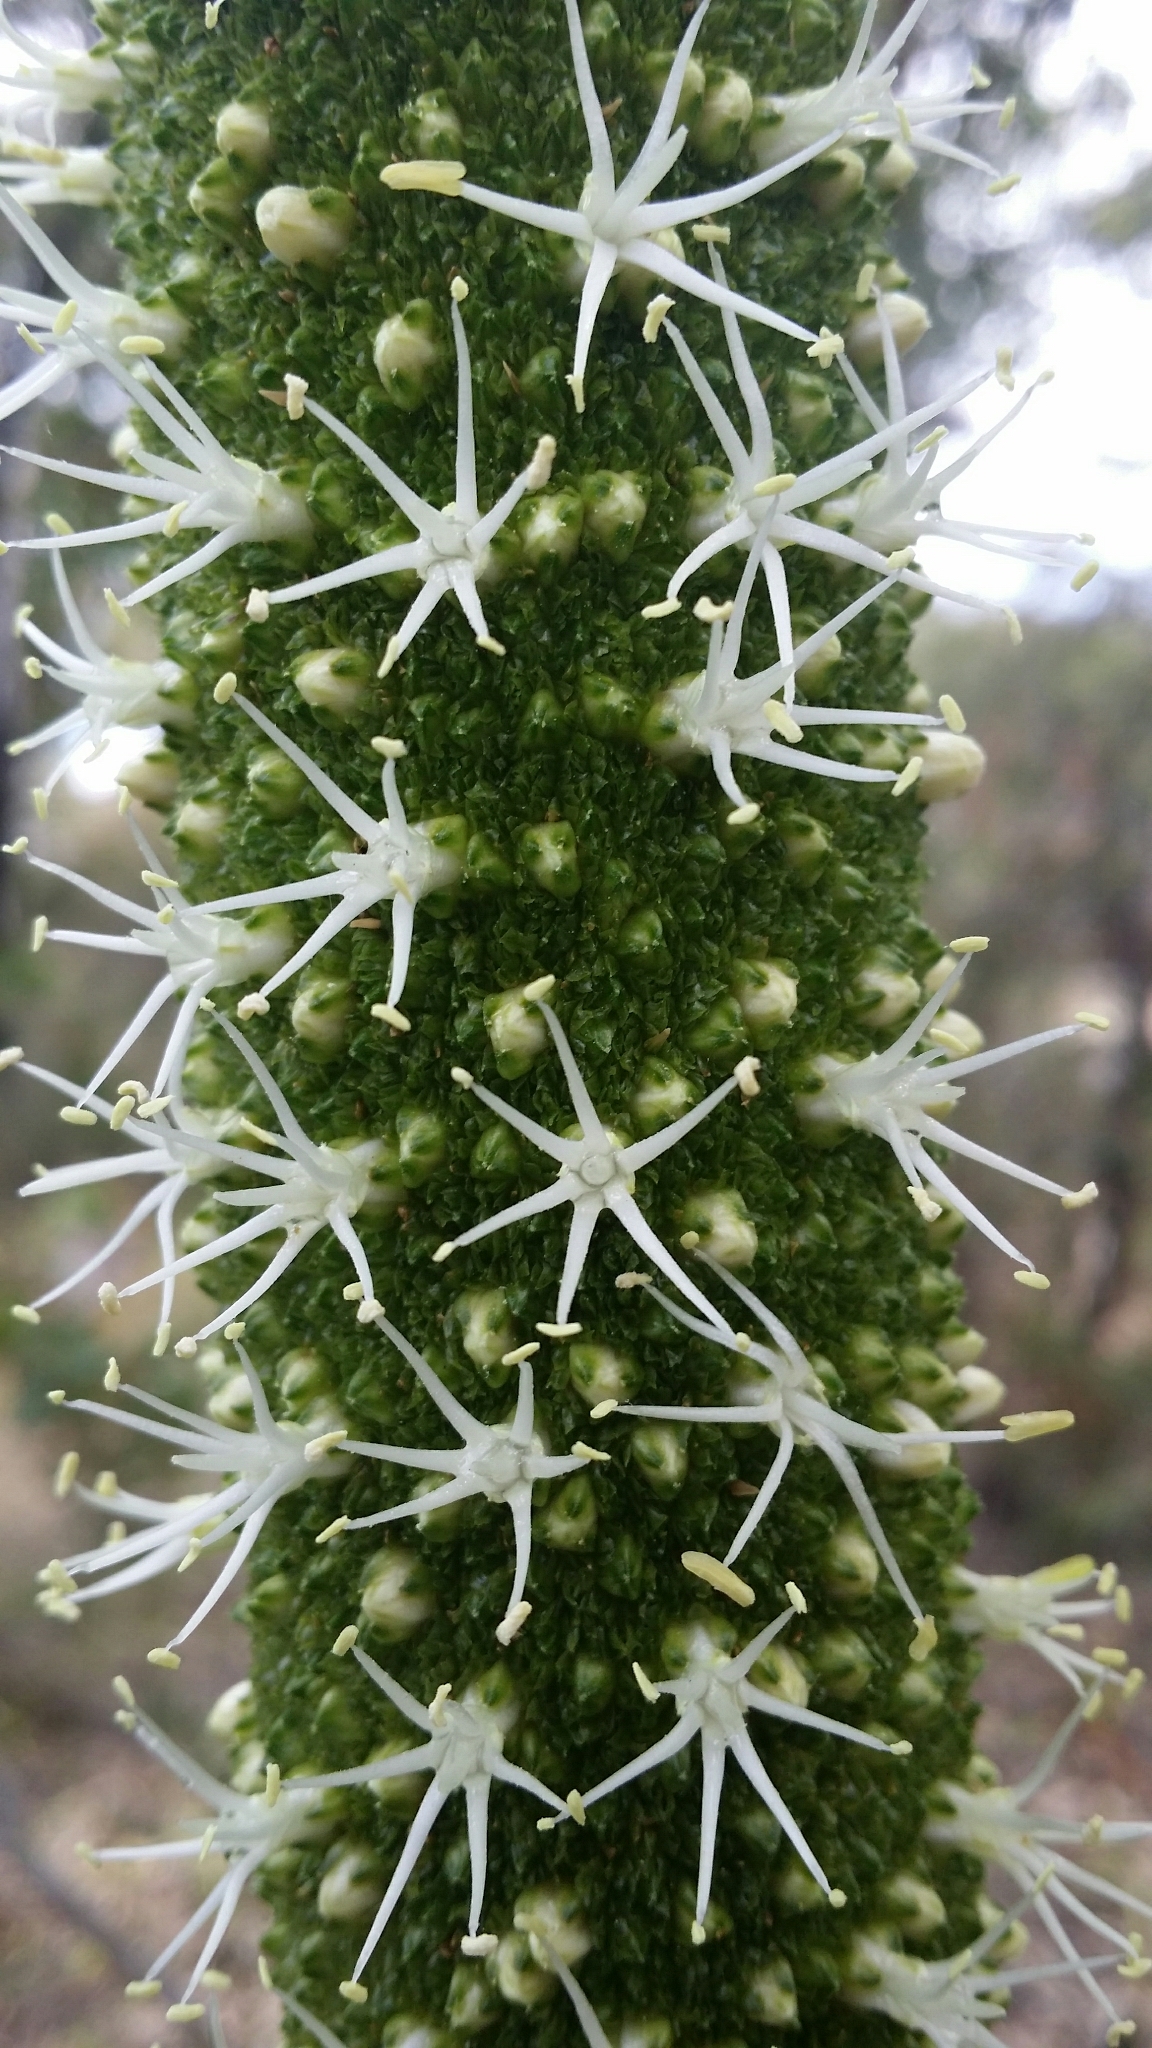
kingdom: Plantae
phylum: Tracheophyta
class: Liliopsida
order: Asparagales
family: Asphodelaceae
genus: Xanthorrhoea
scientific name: Xanthorrhoea preissii
